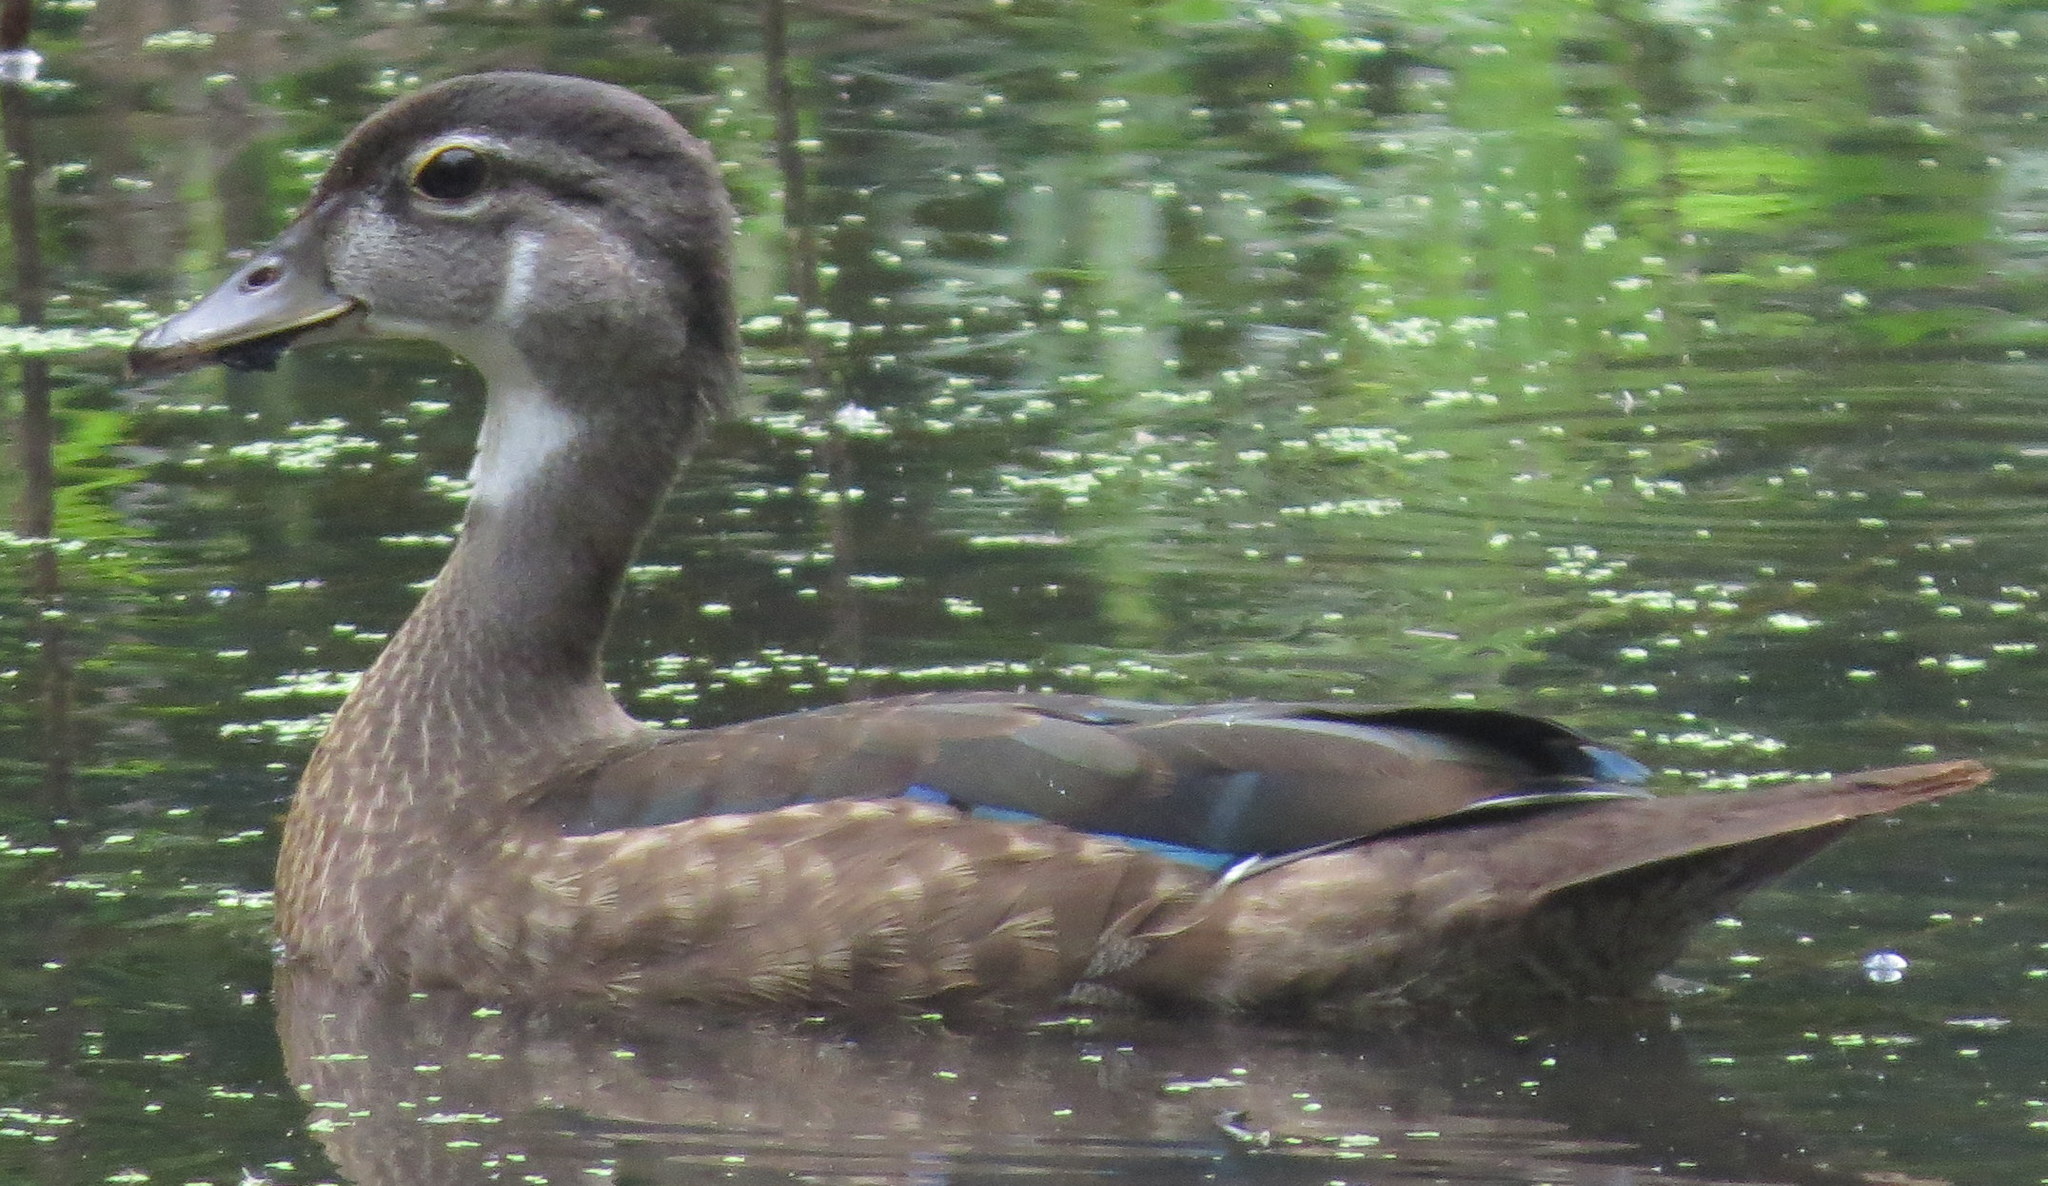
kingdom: Animalia
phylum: Chordata
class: Aves
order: Anseriformes
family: Anatidae
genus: Aix
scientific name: Aix sponsa
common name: Wood duck
